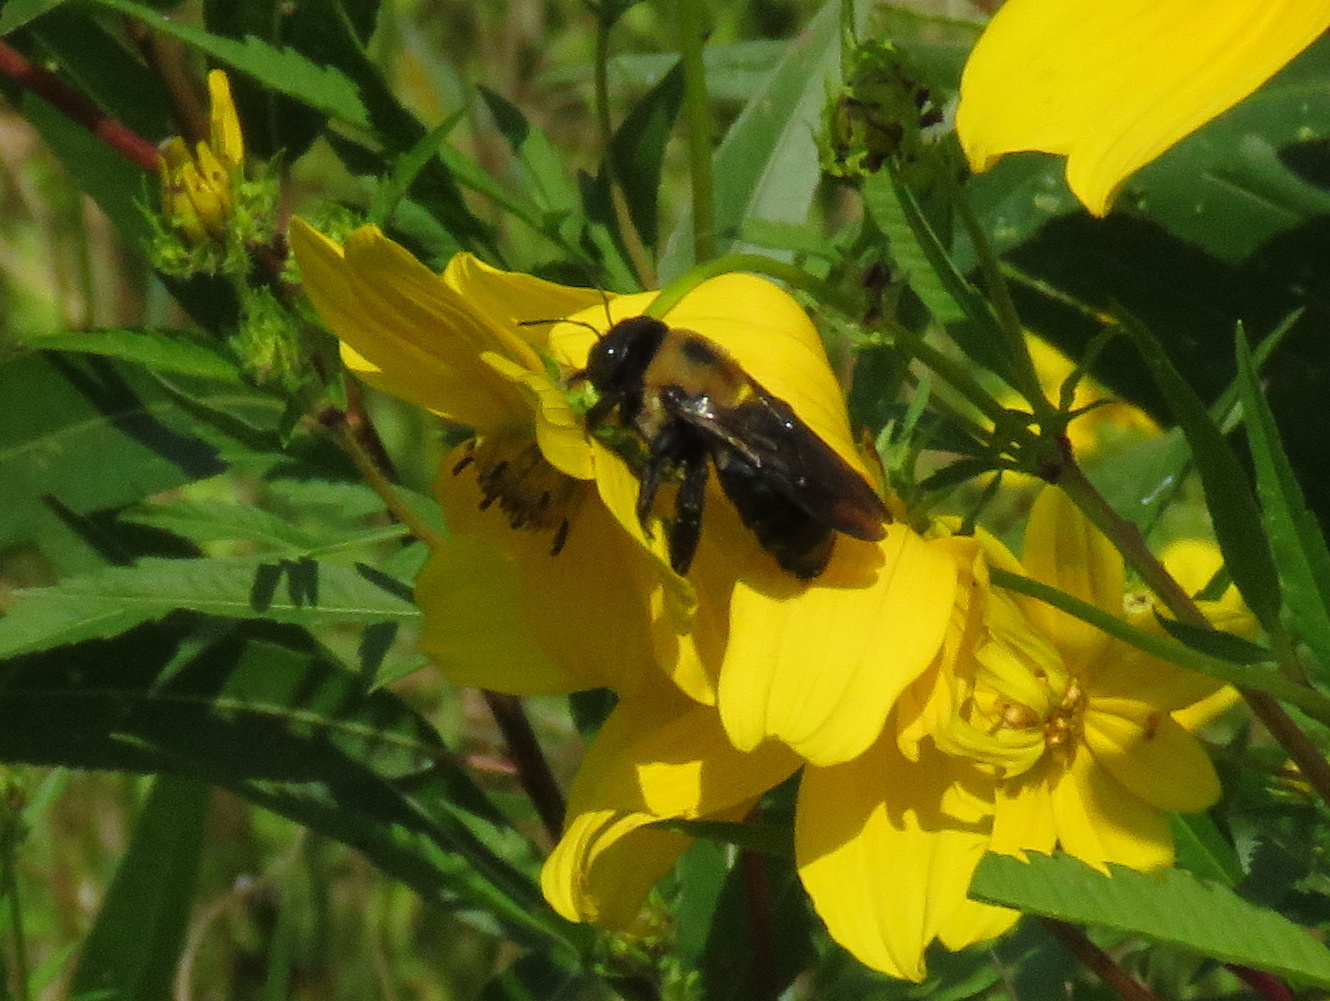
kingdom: Animalia
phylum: Arthropoda
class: Insecta
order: Hymenoptera
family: Apidae
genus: Xylocopa
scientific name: Xylocopa virginica
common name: Carpenter bee
